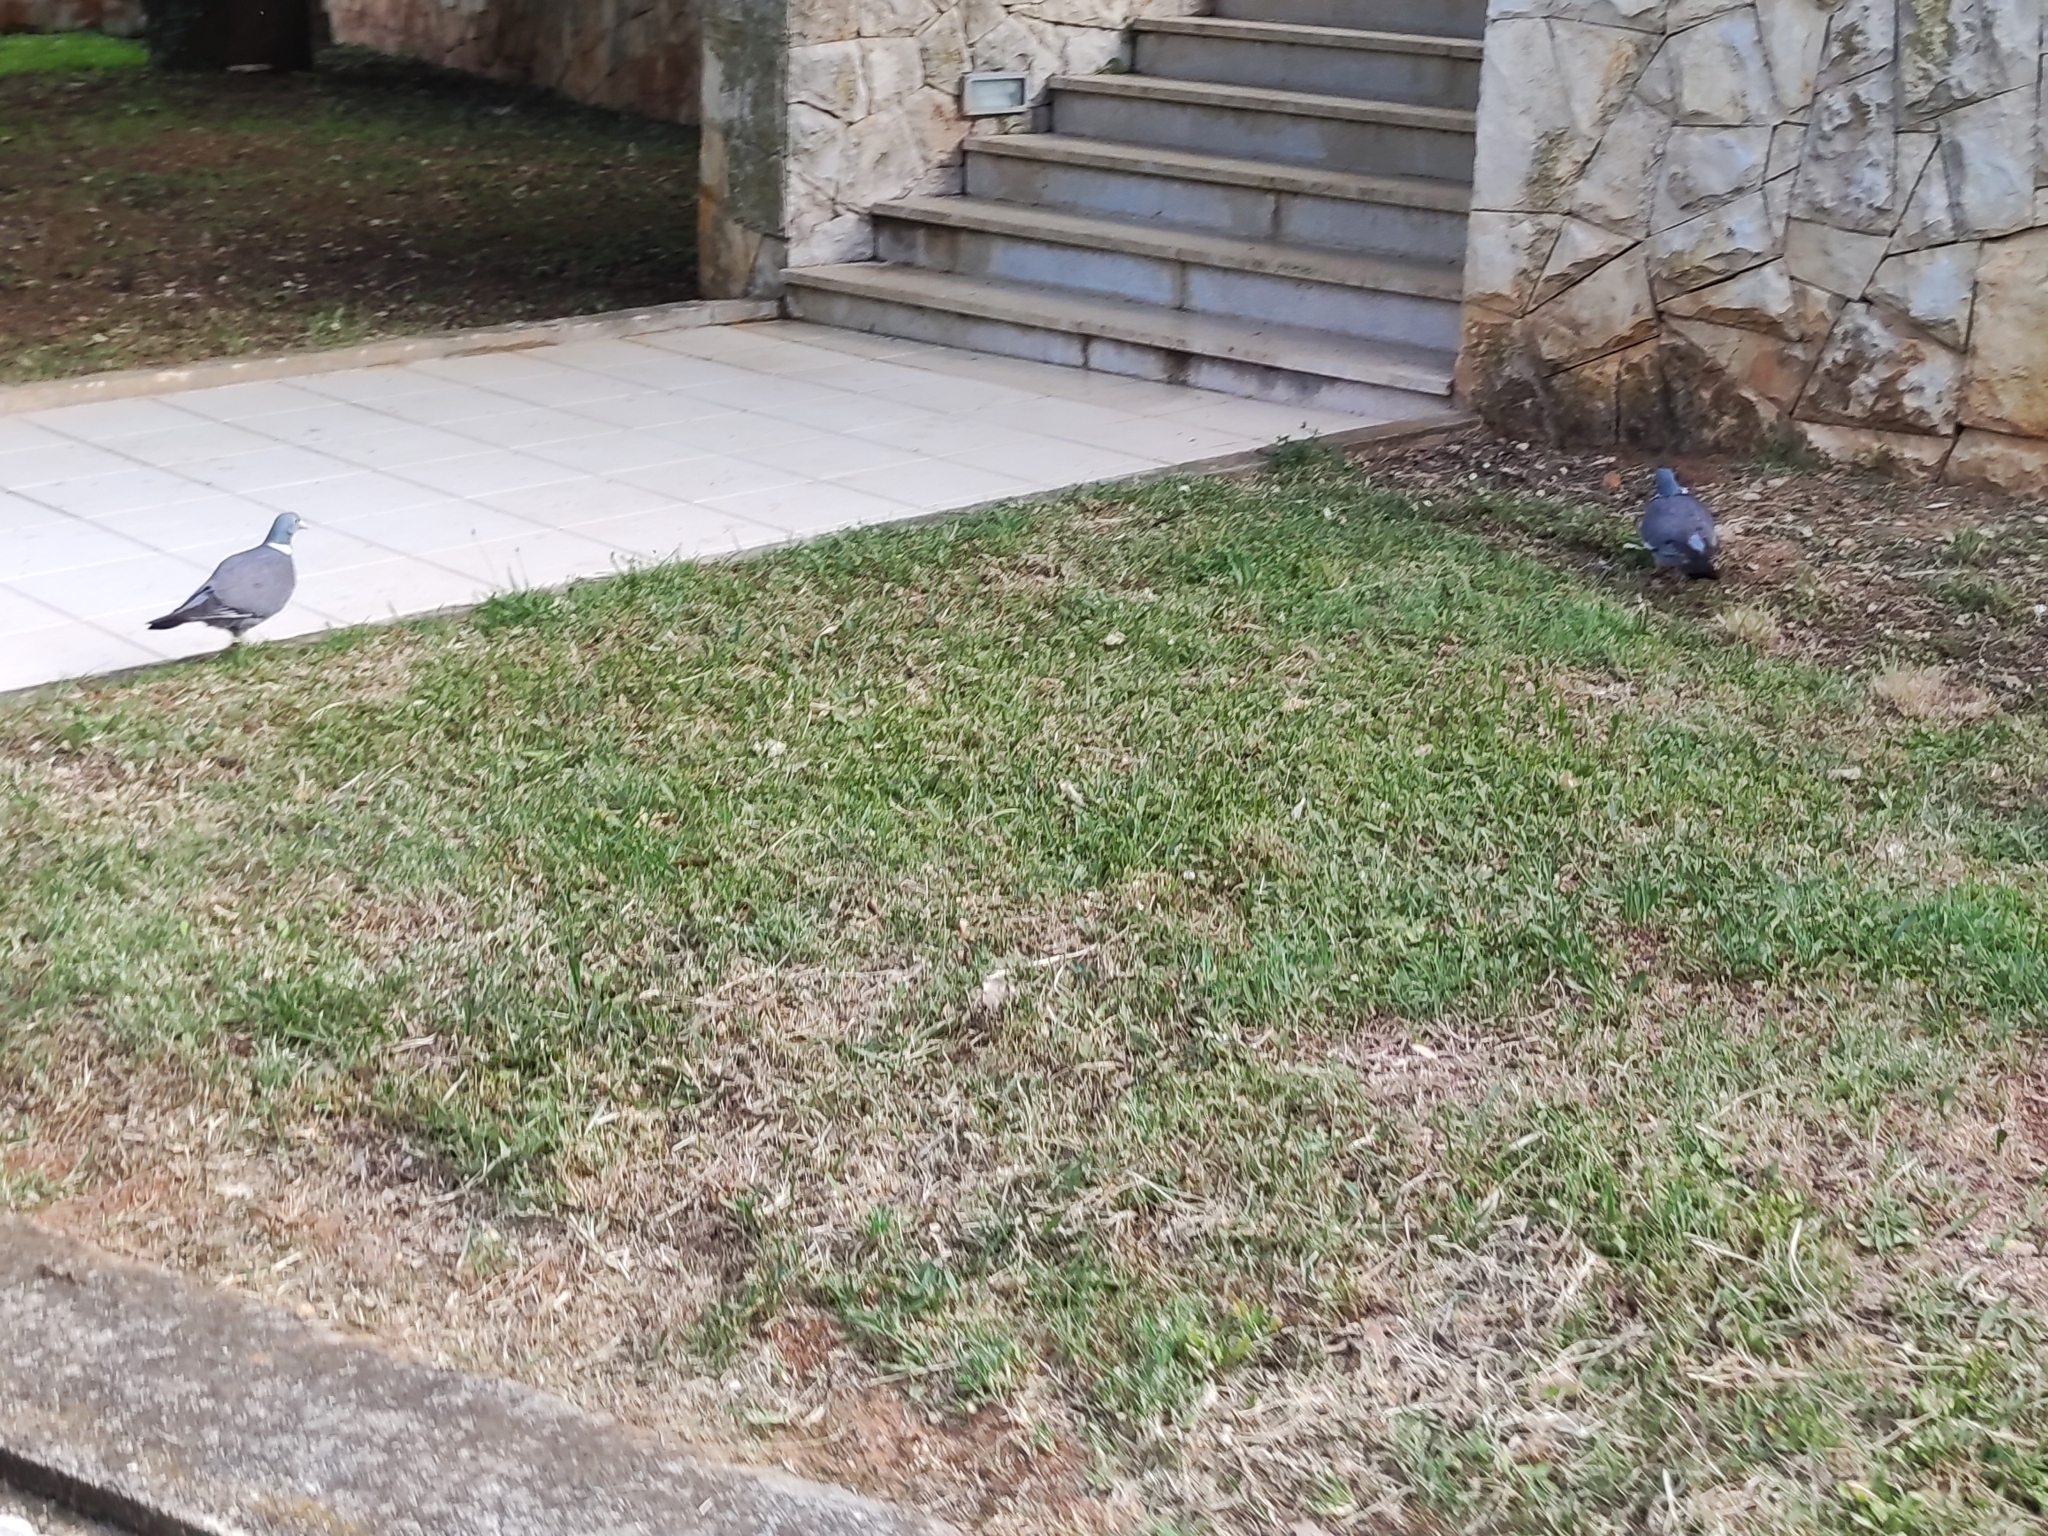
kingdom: Animalia
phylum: Chordata
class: Aves
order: Columbiformes
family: Columbidae
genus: Columba
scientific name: Columba palumbus
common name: Common wood pigeon
